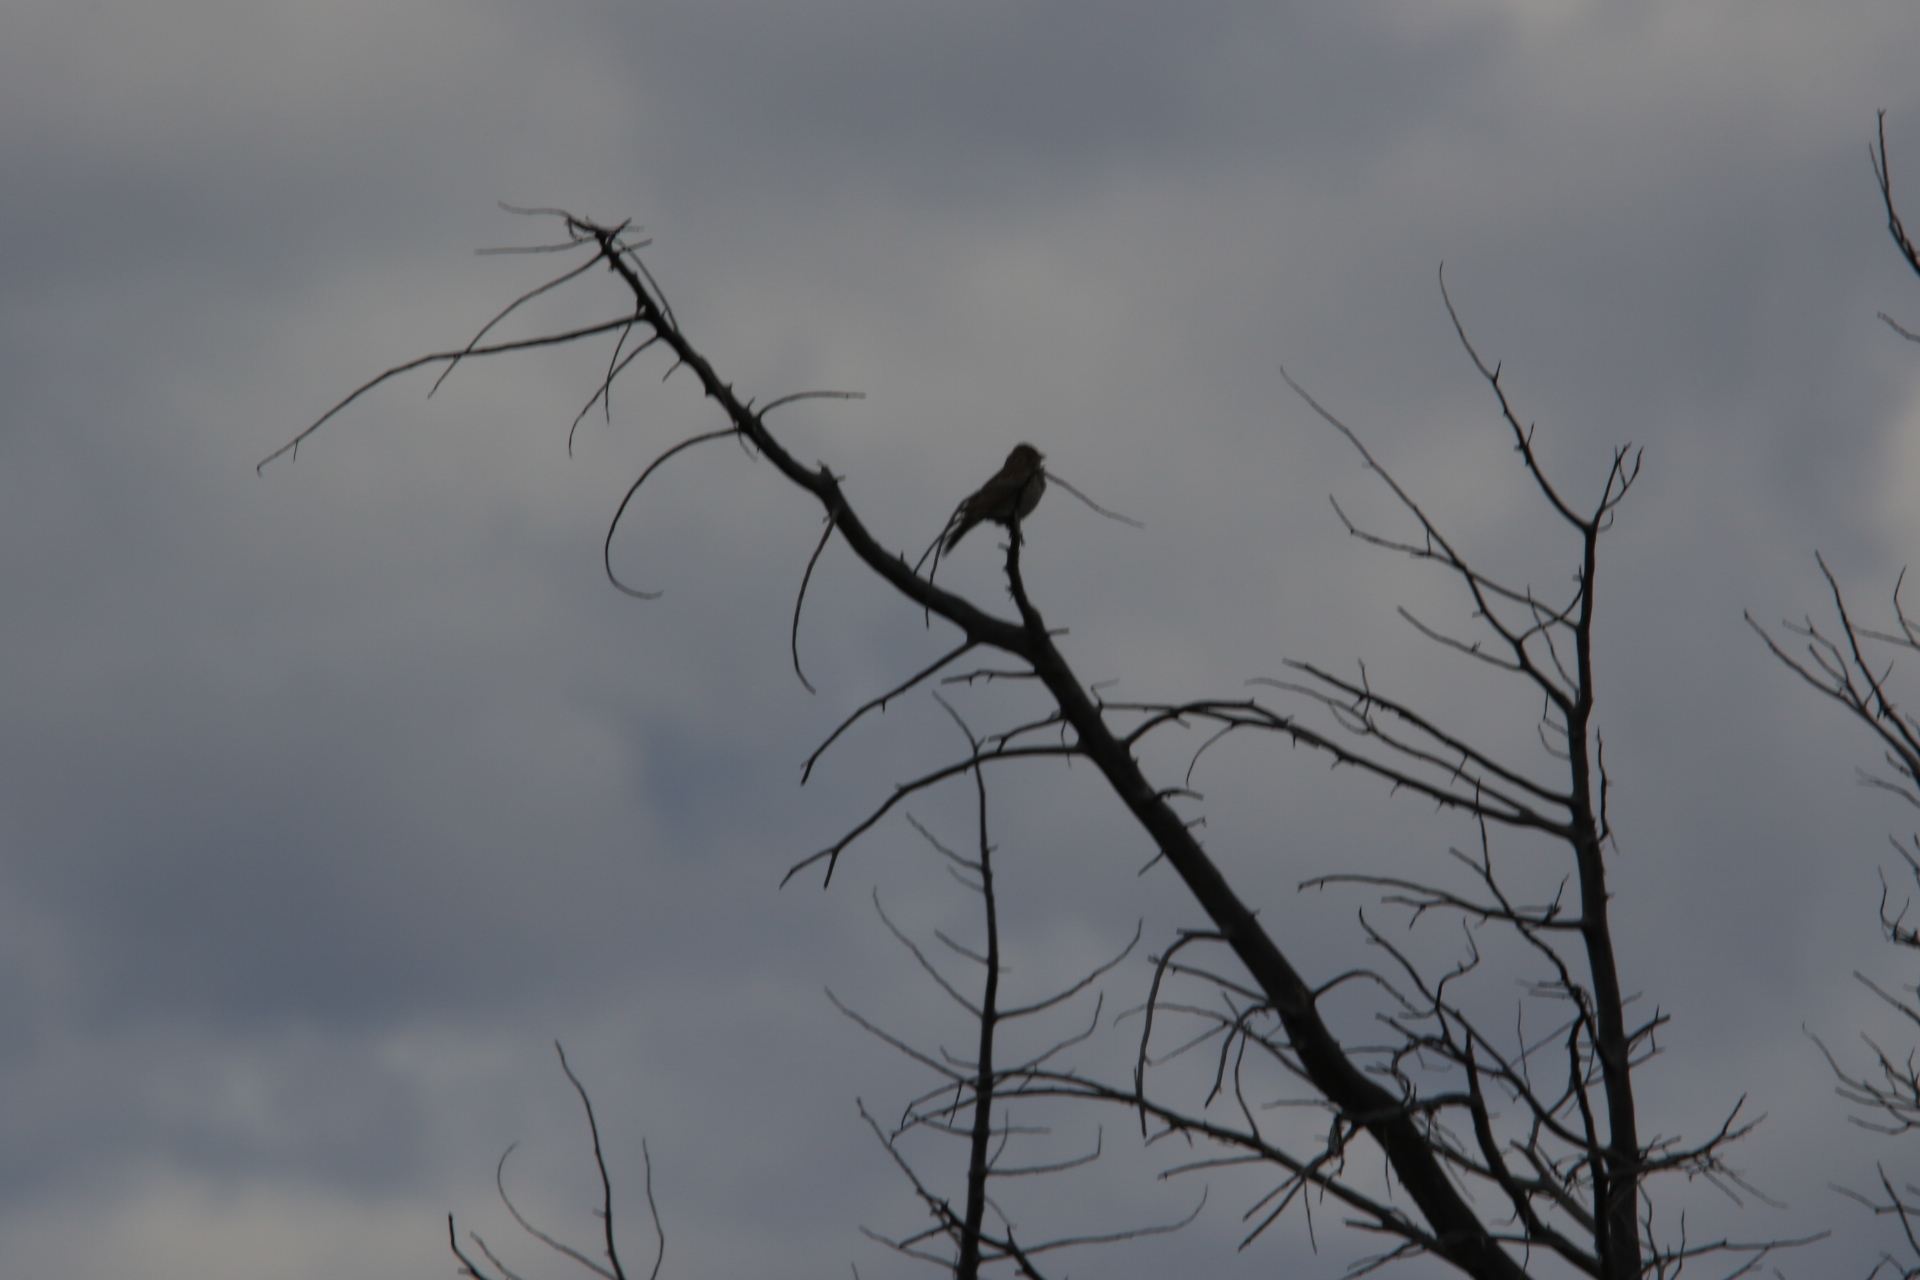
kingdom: Animalia
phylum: Chordata
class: Aves
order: Passeriformes
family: Passerellidae
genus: Pooecetes
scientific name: Pooecetes gramineus
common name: Vesper sparrow
